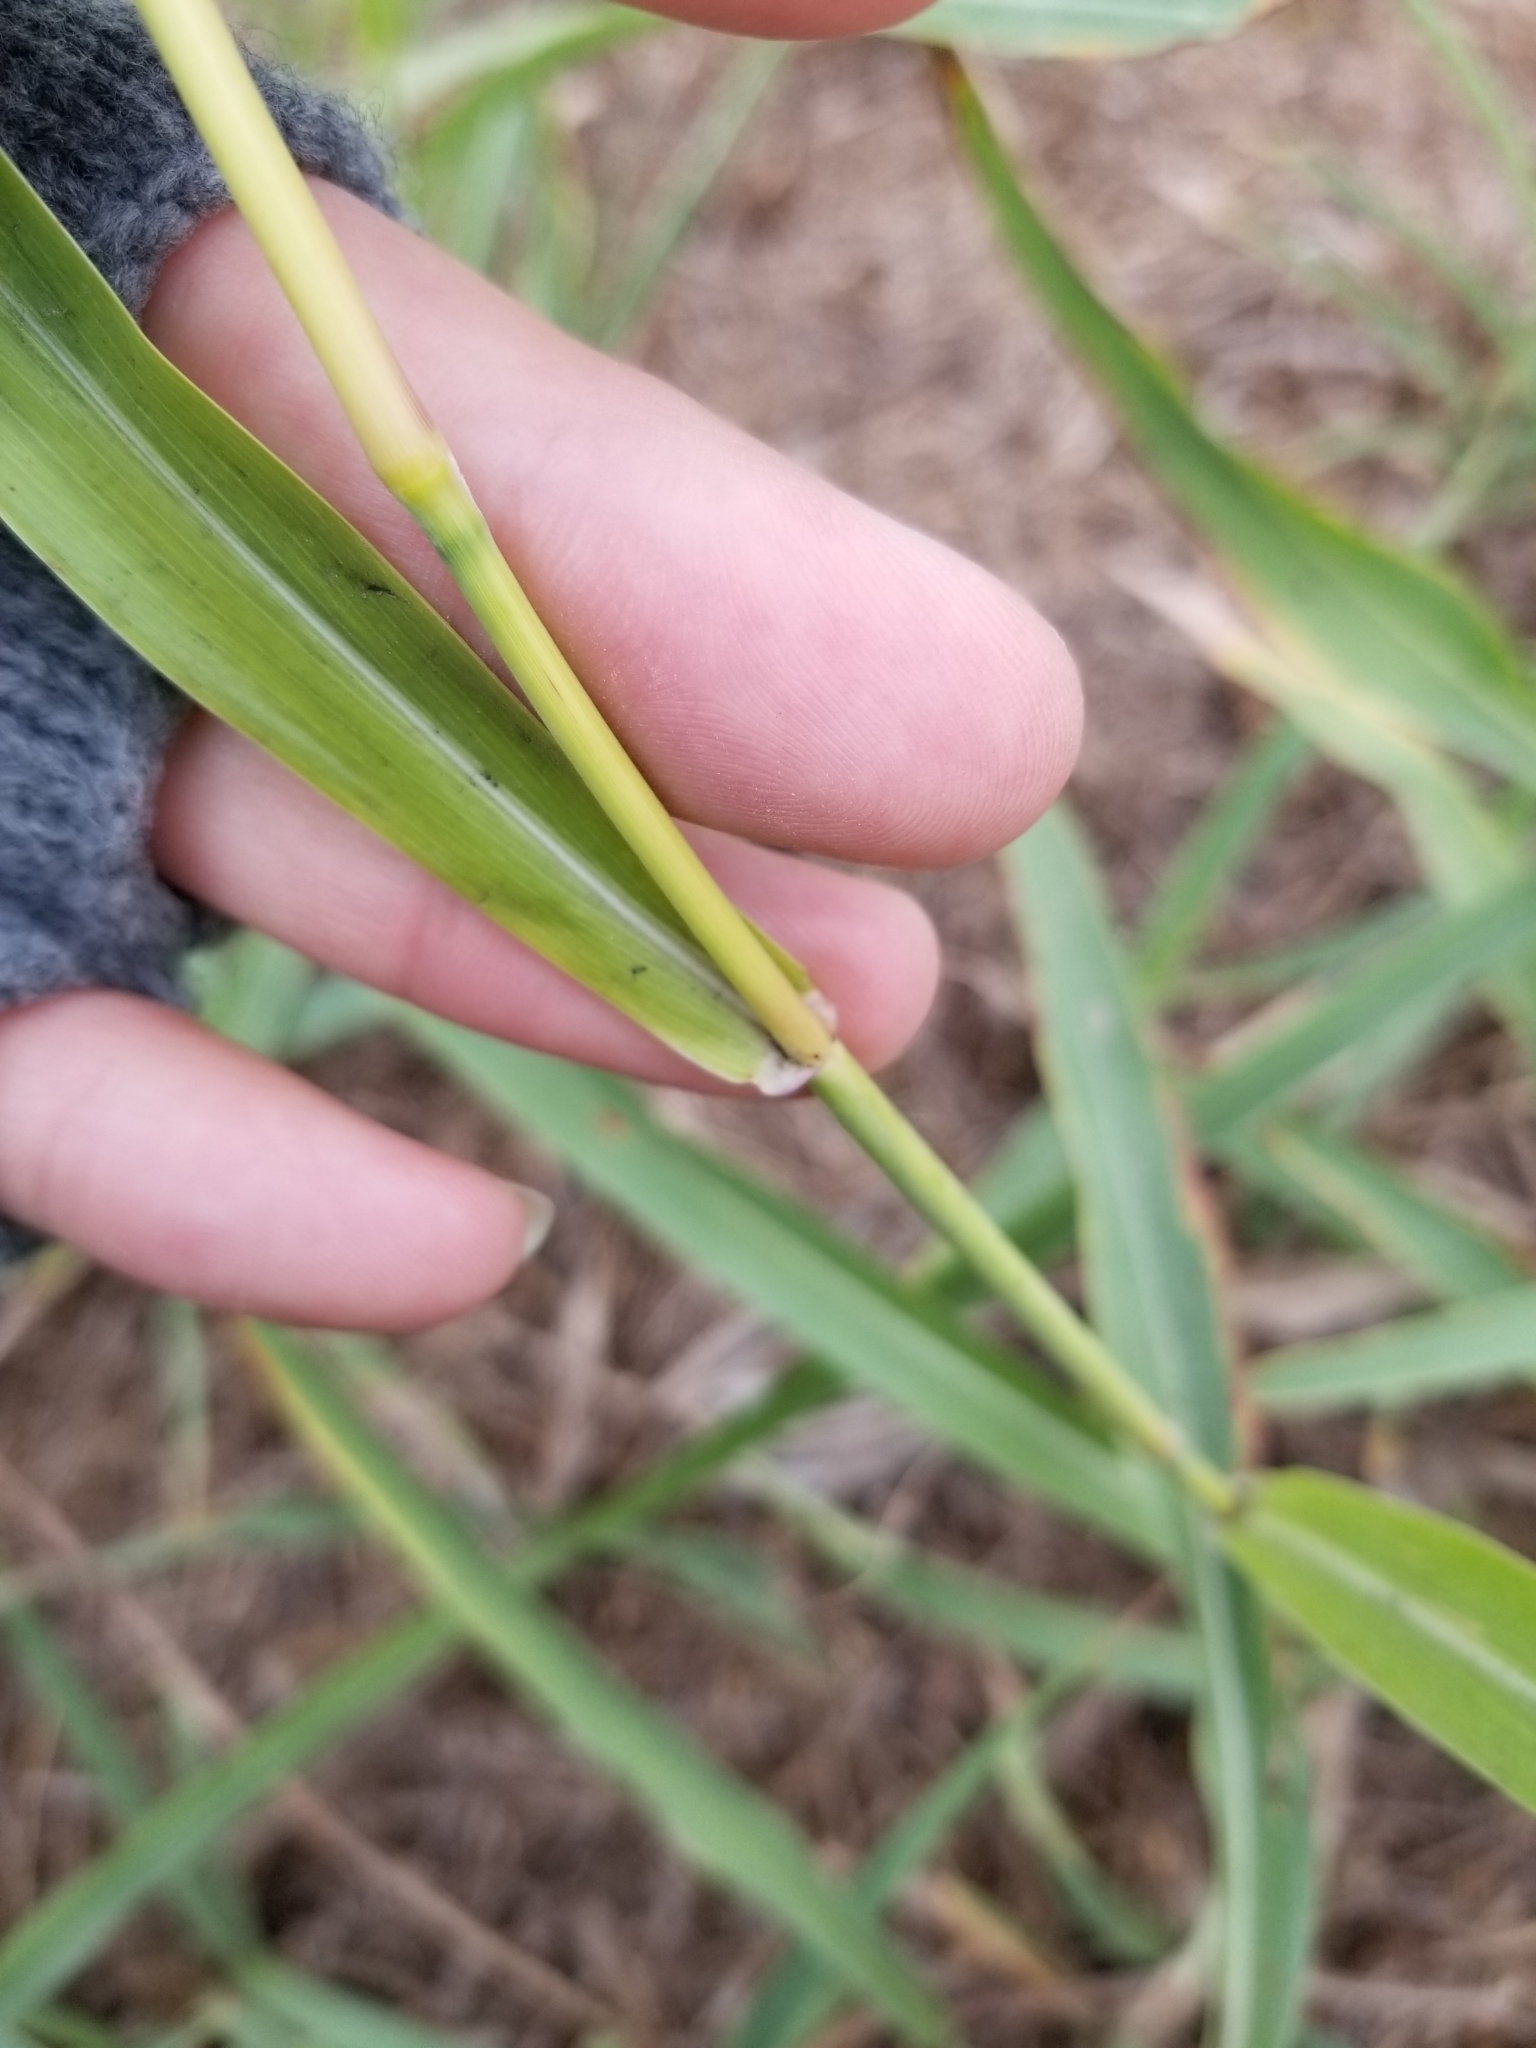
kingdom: Plantae
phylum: Tracheophyta
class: Liliopsida
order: Poales
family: Poaceae
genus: Sorghum
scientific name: Sorghum halepense
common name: Johnson-grass
